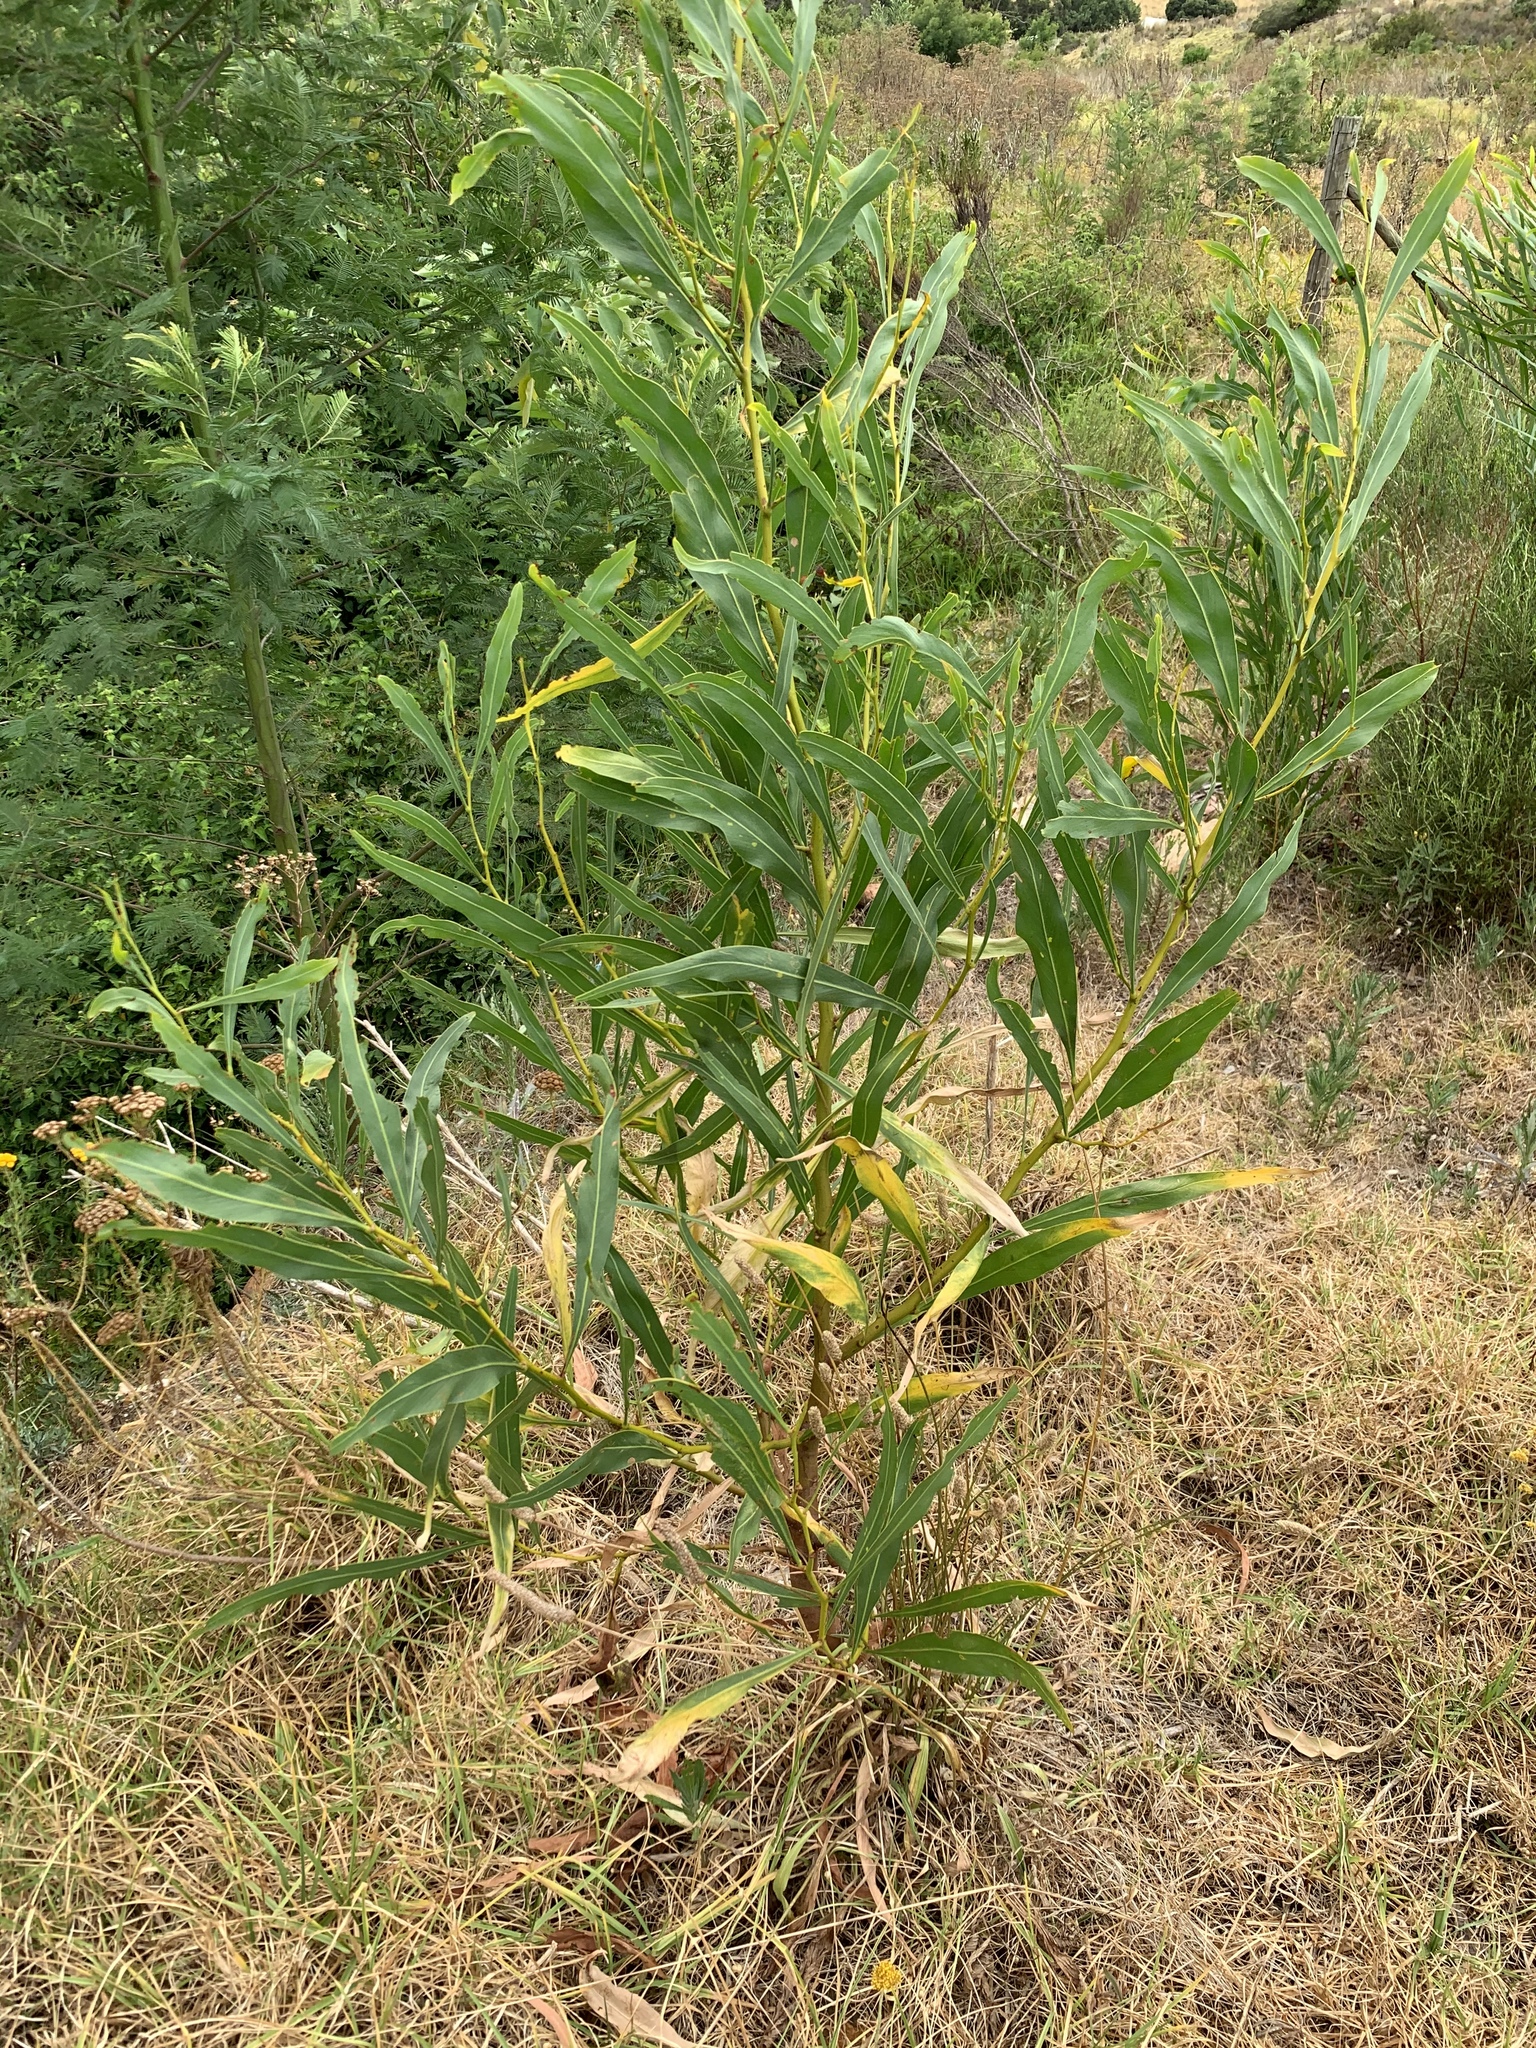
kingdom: Plantae
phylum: Tracheophyta
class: Magnoliopsida
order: Fabales
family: Fabaceae
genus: Acacia
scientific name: Acacia saligna
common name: Orange wattle
